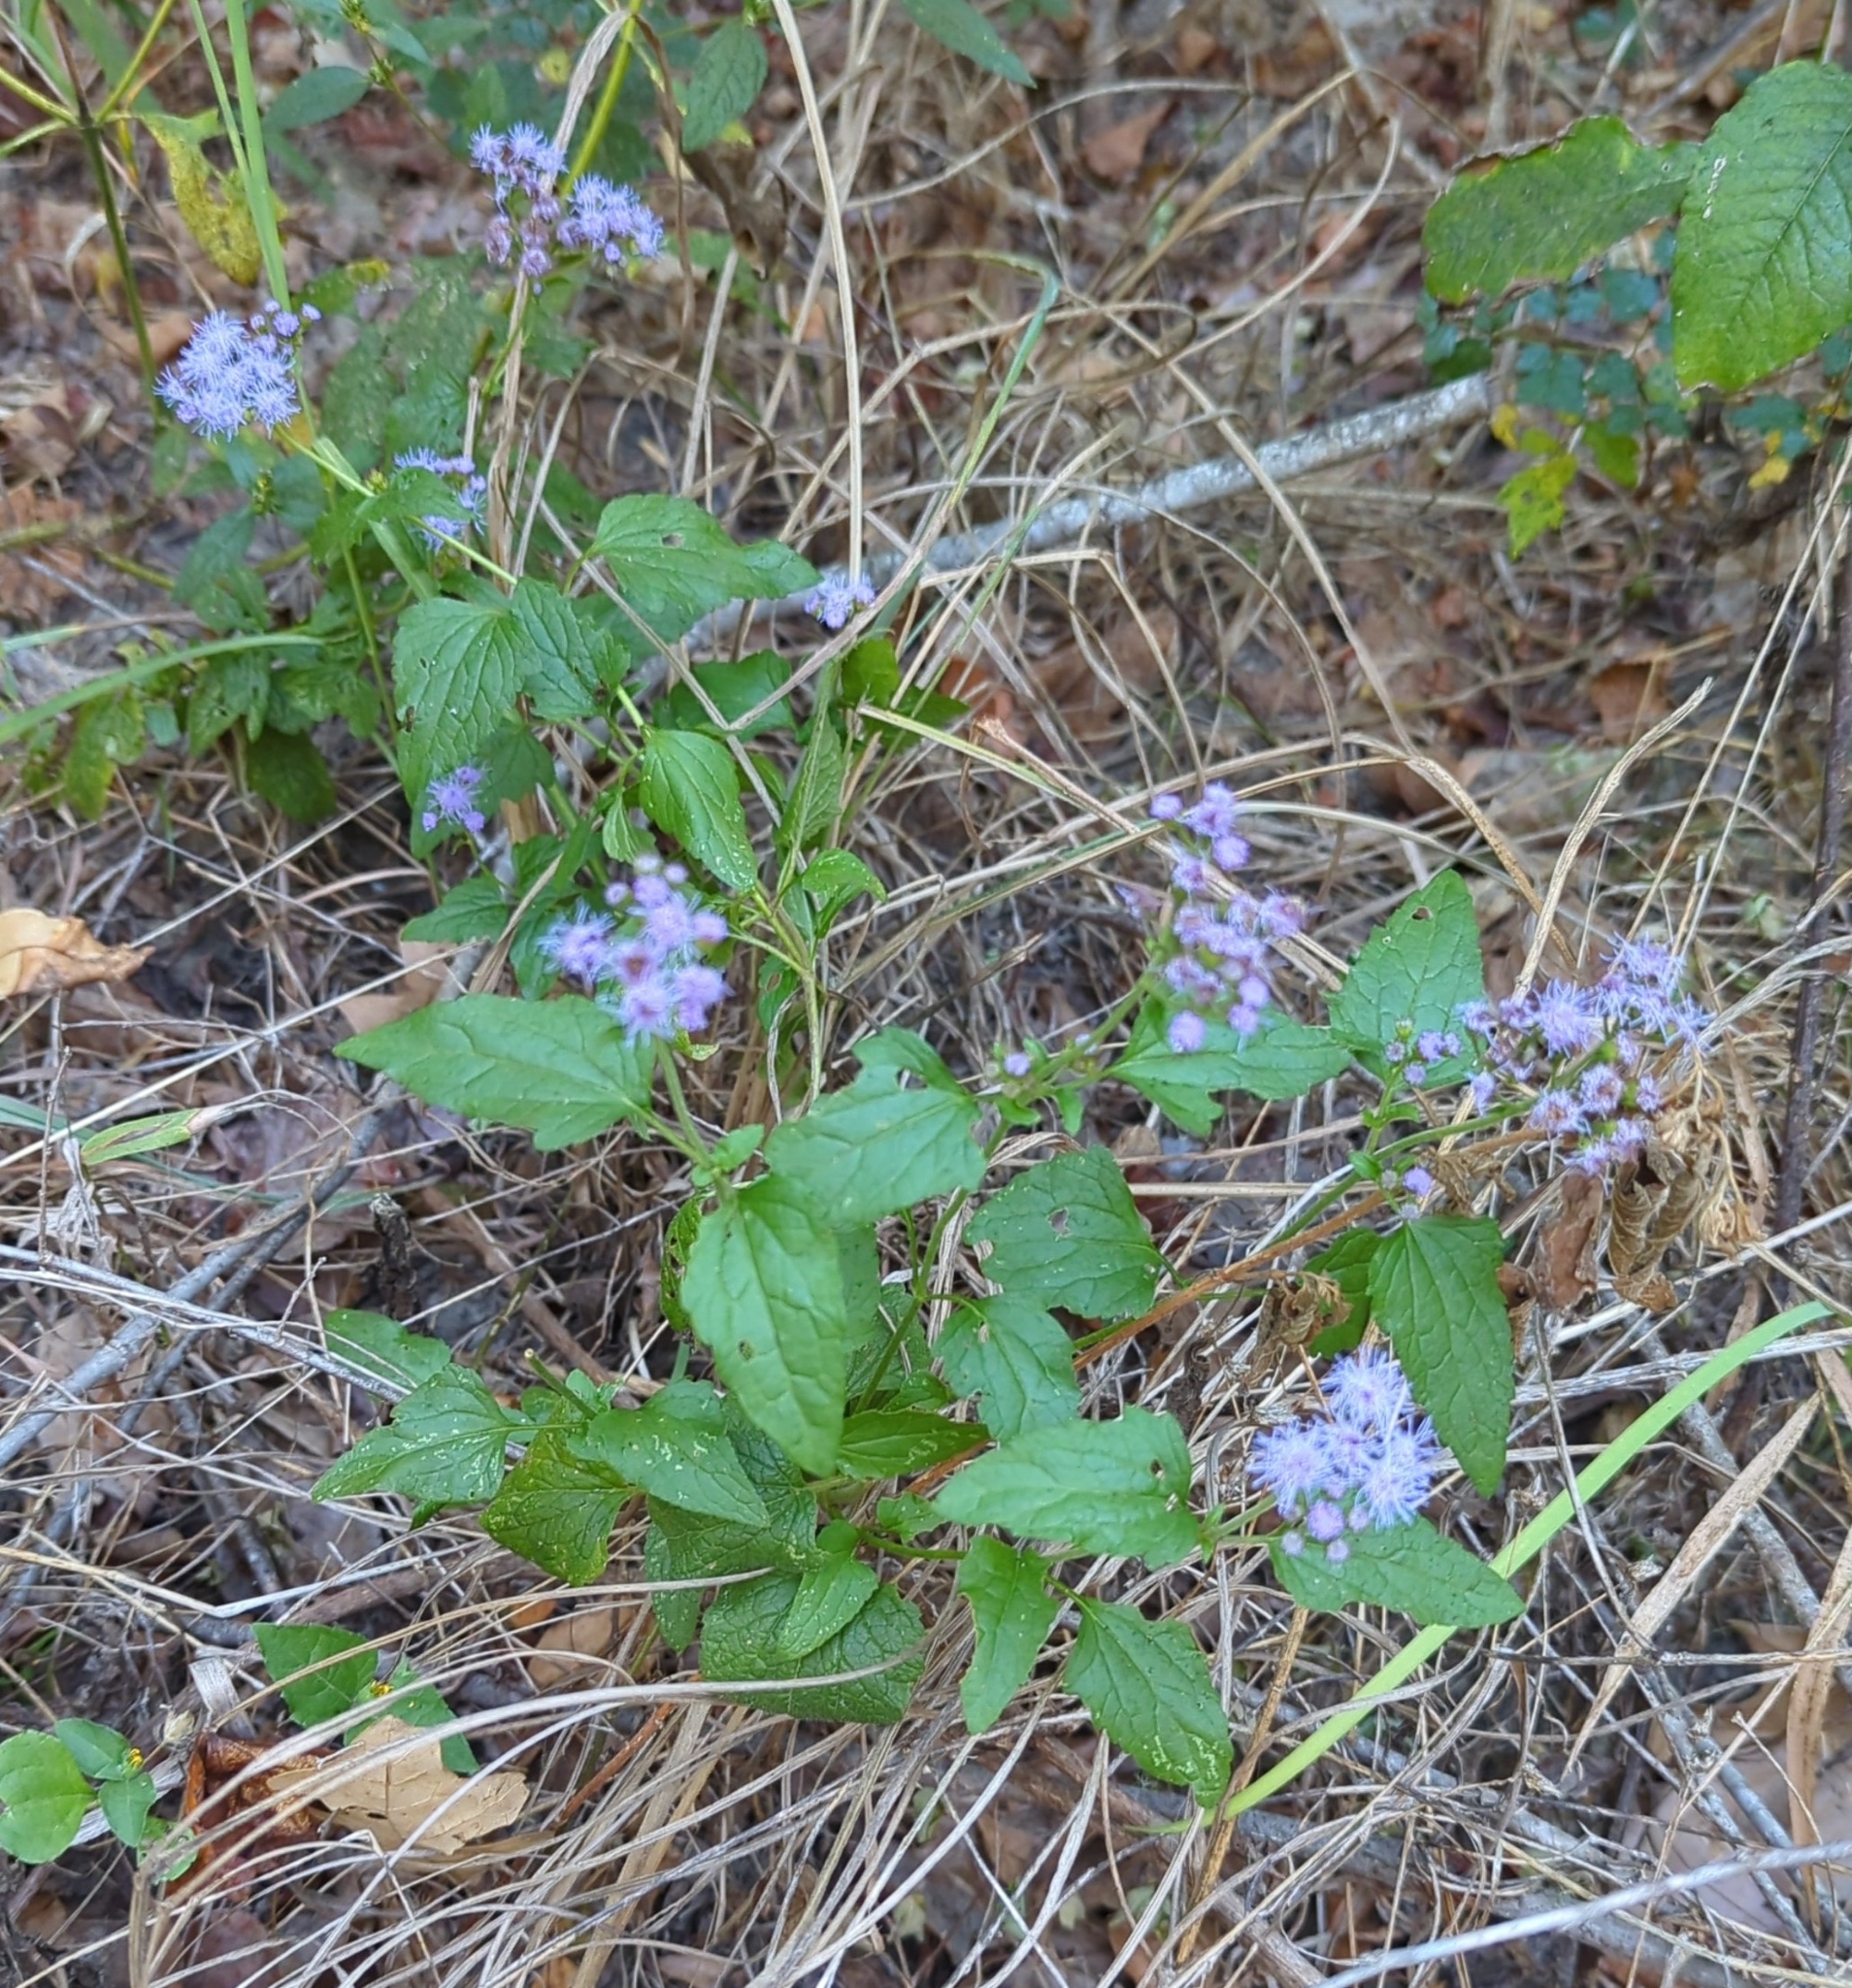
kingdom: Plantae
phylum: Tracheophyta
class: Magnoliopsida
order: Asterales
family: Asteraceae
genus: Conoclinium
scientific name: Conoclinium coelestinum
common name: Blue mistflower
